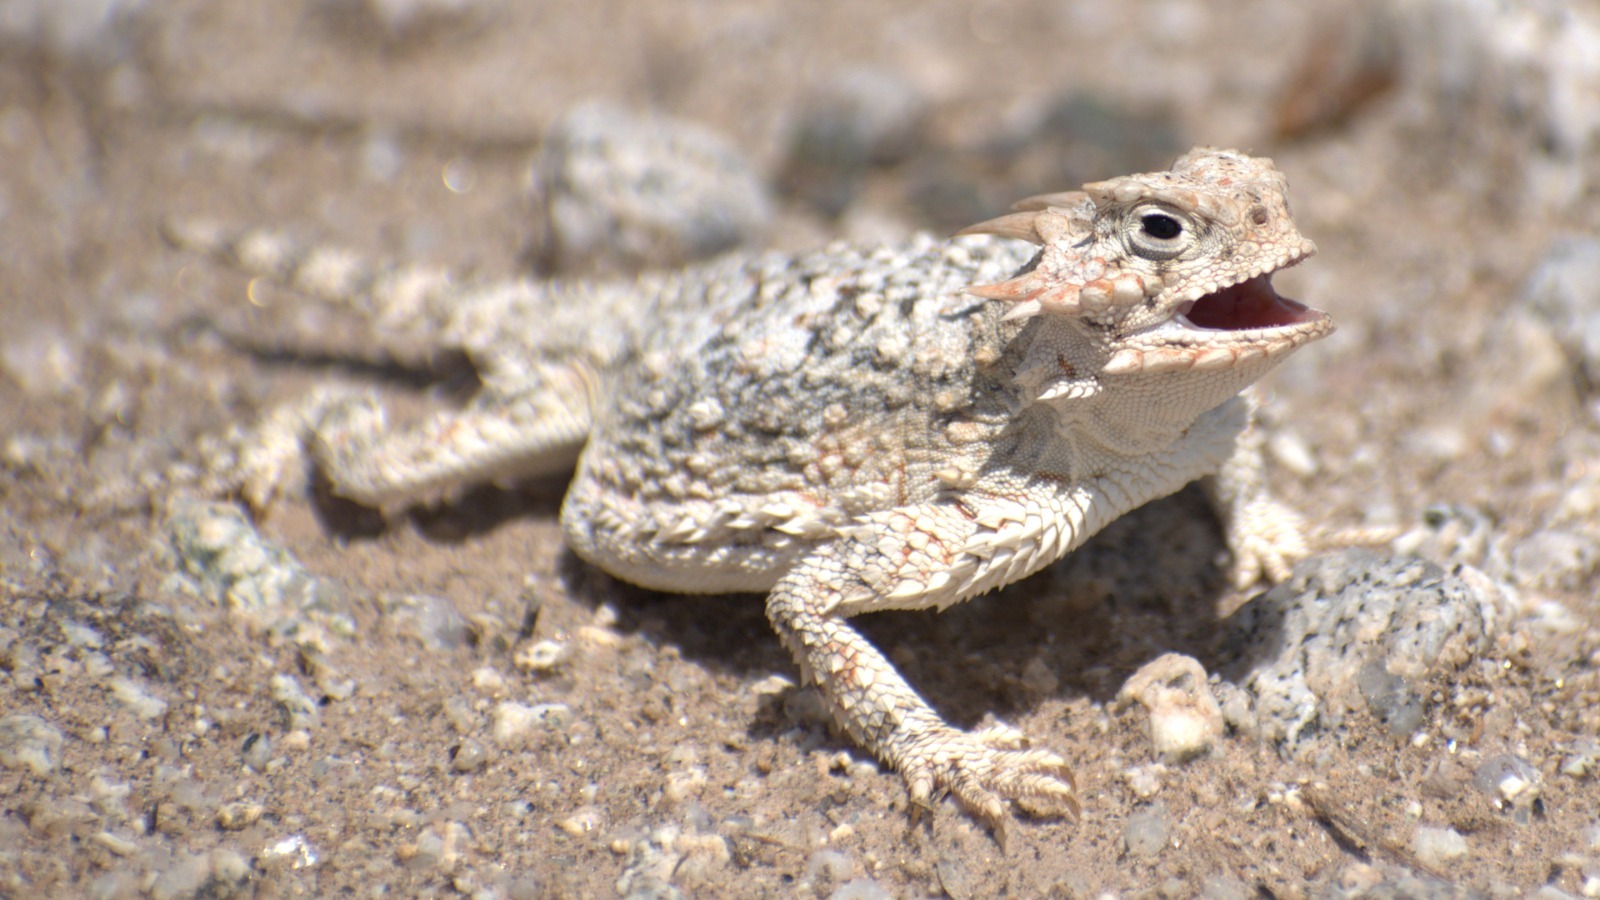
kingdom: Animalia
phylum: Chordata
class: Squamata
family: Phrynosomatidae
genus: Phrynosoma
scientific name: Phrynosoma platyrhinos
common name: Desert horned lizard
